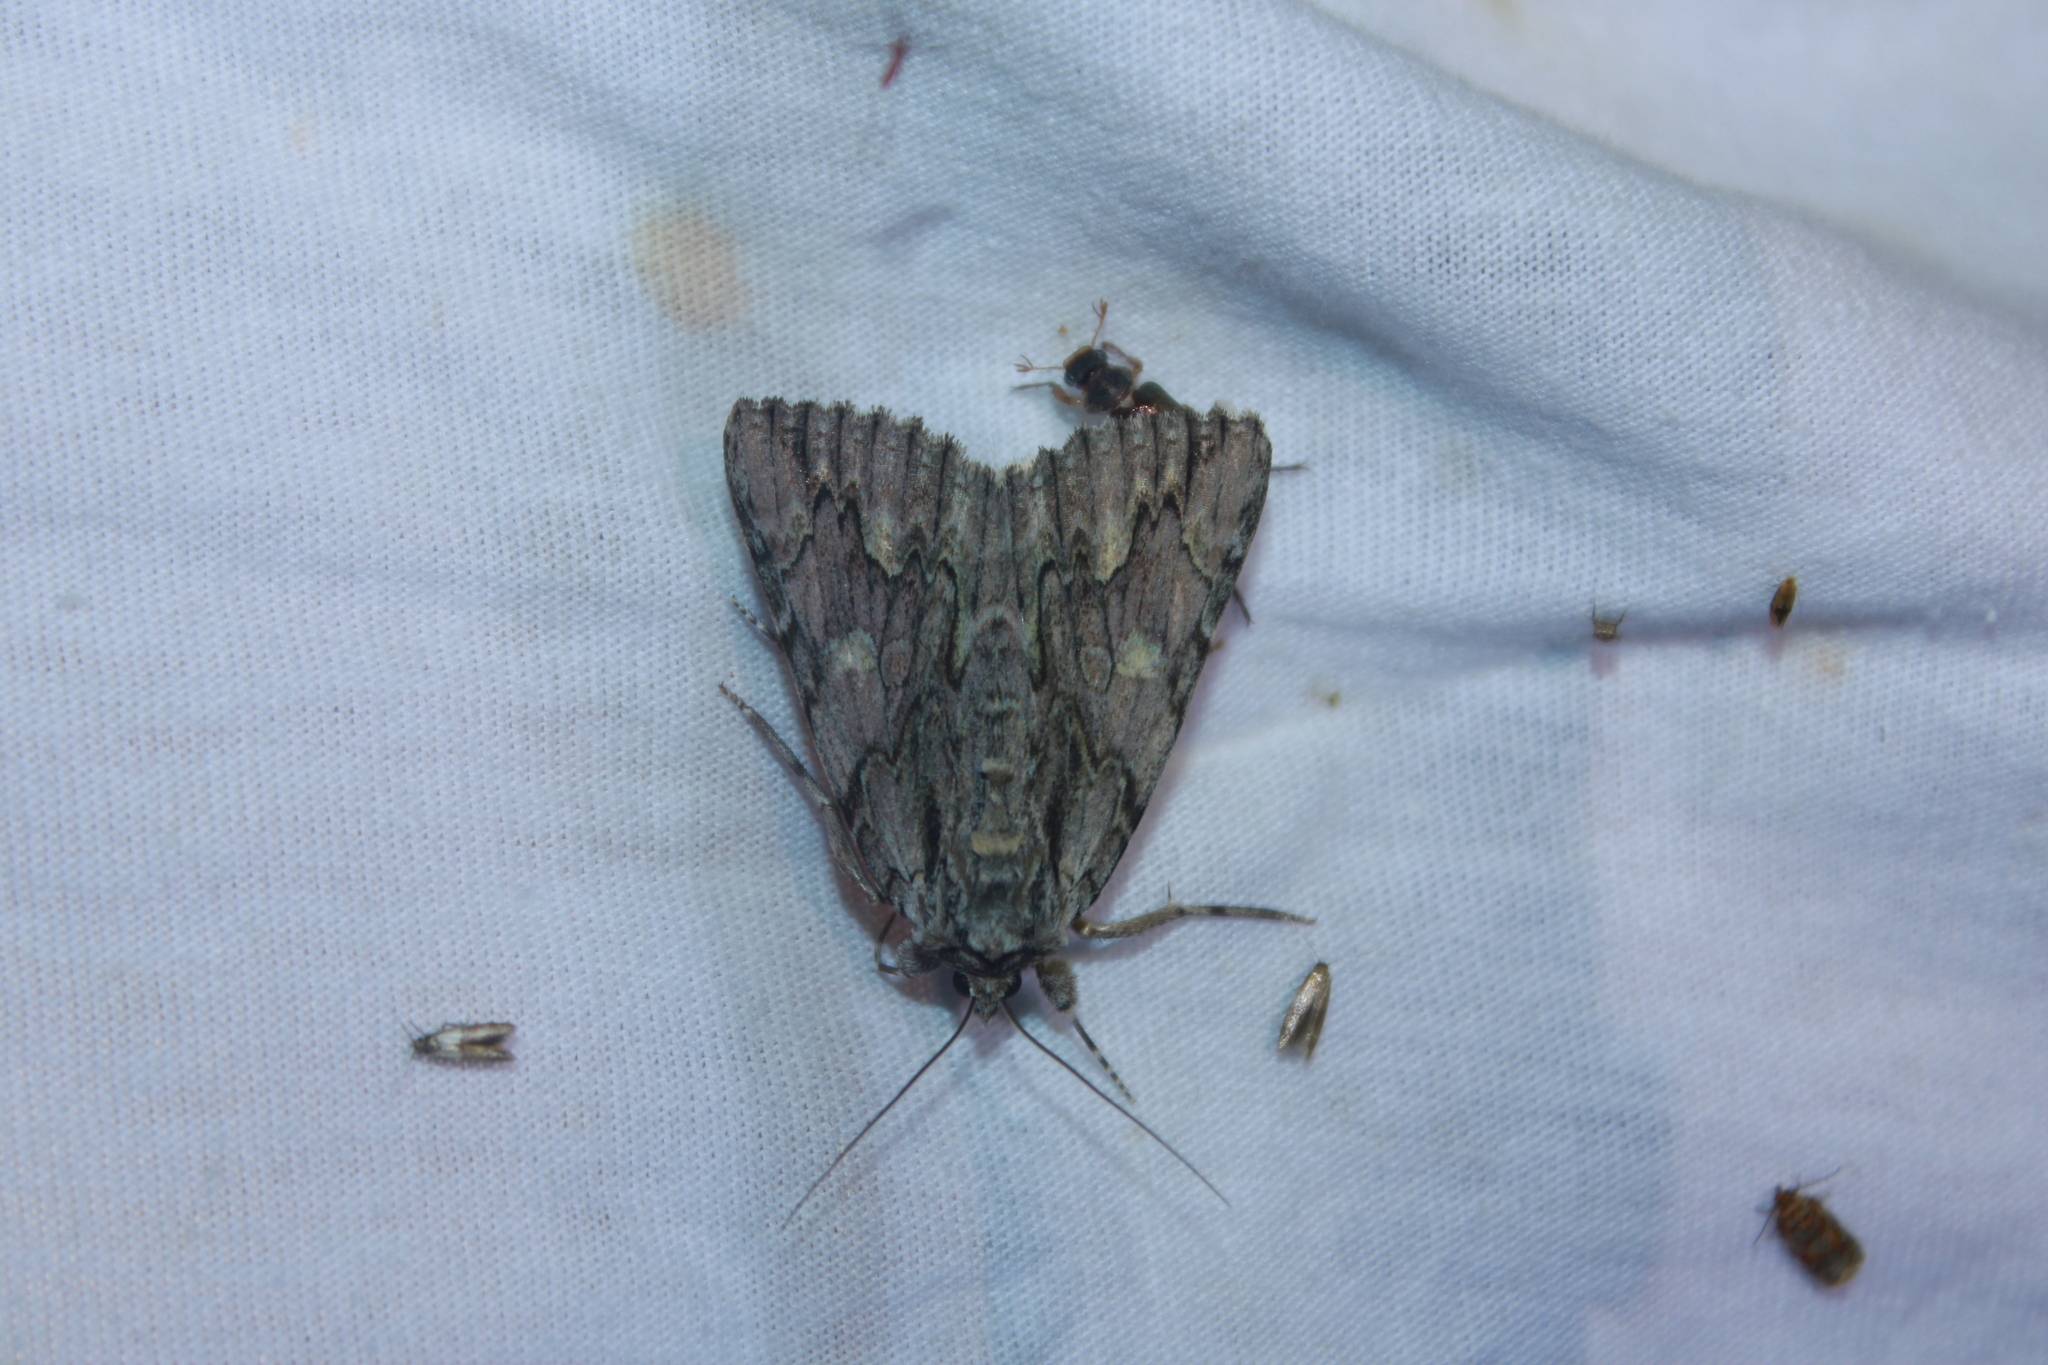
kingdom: Animalia
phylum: Arthropoda
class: Insecta
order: Lepidoptera
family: Erebidae
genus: Catocala
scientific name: Catocala coccinata
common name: Scarlet underwing
